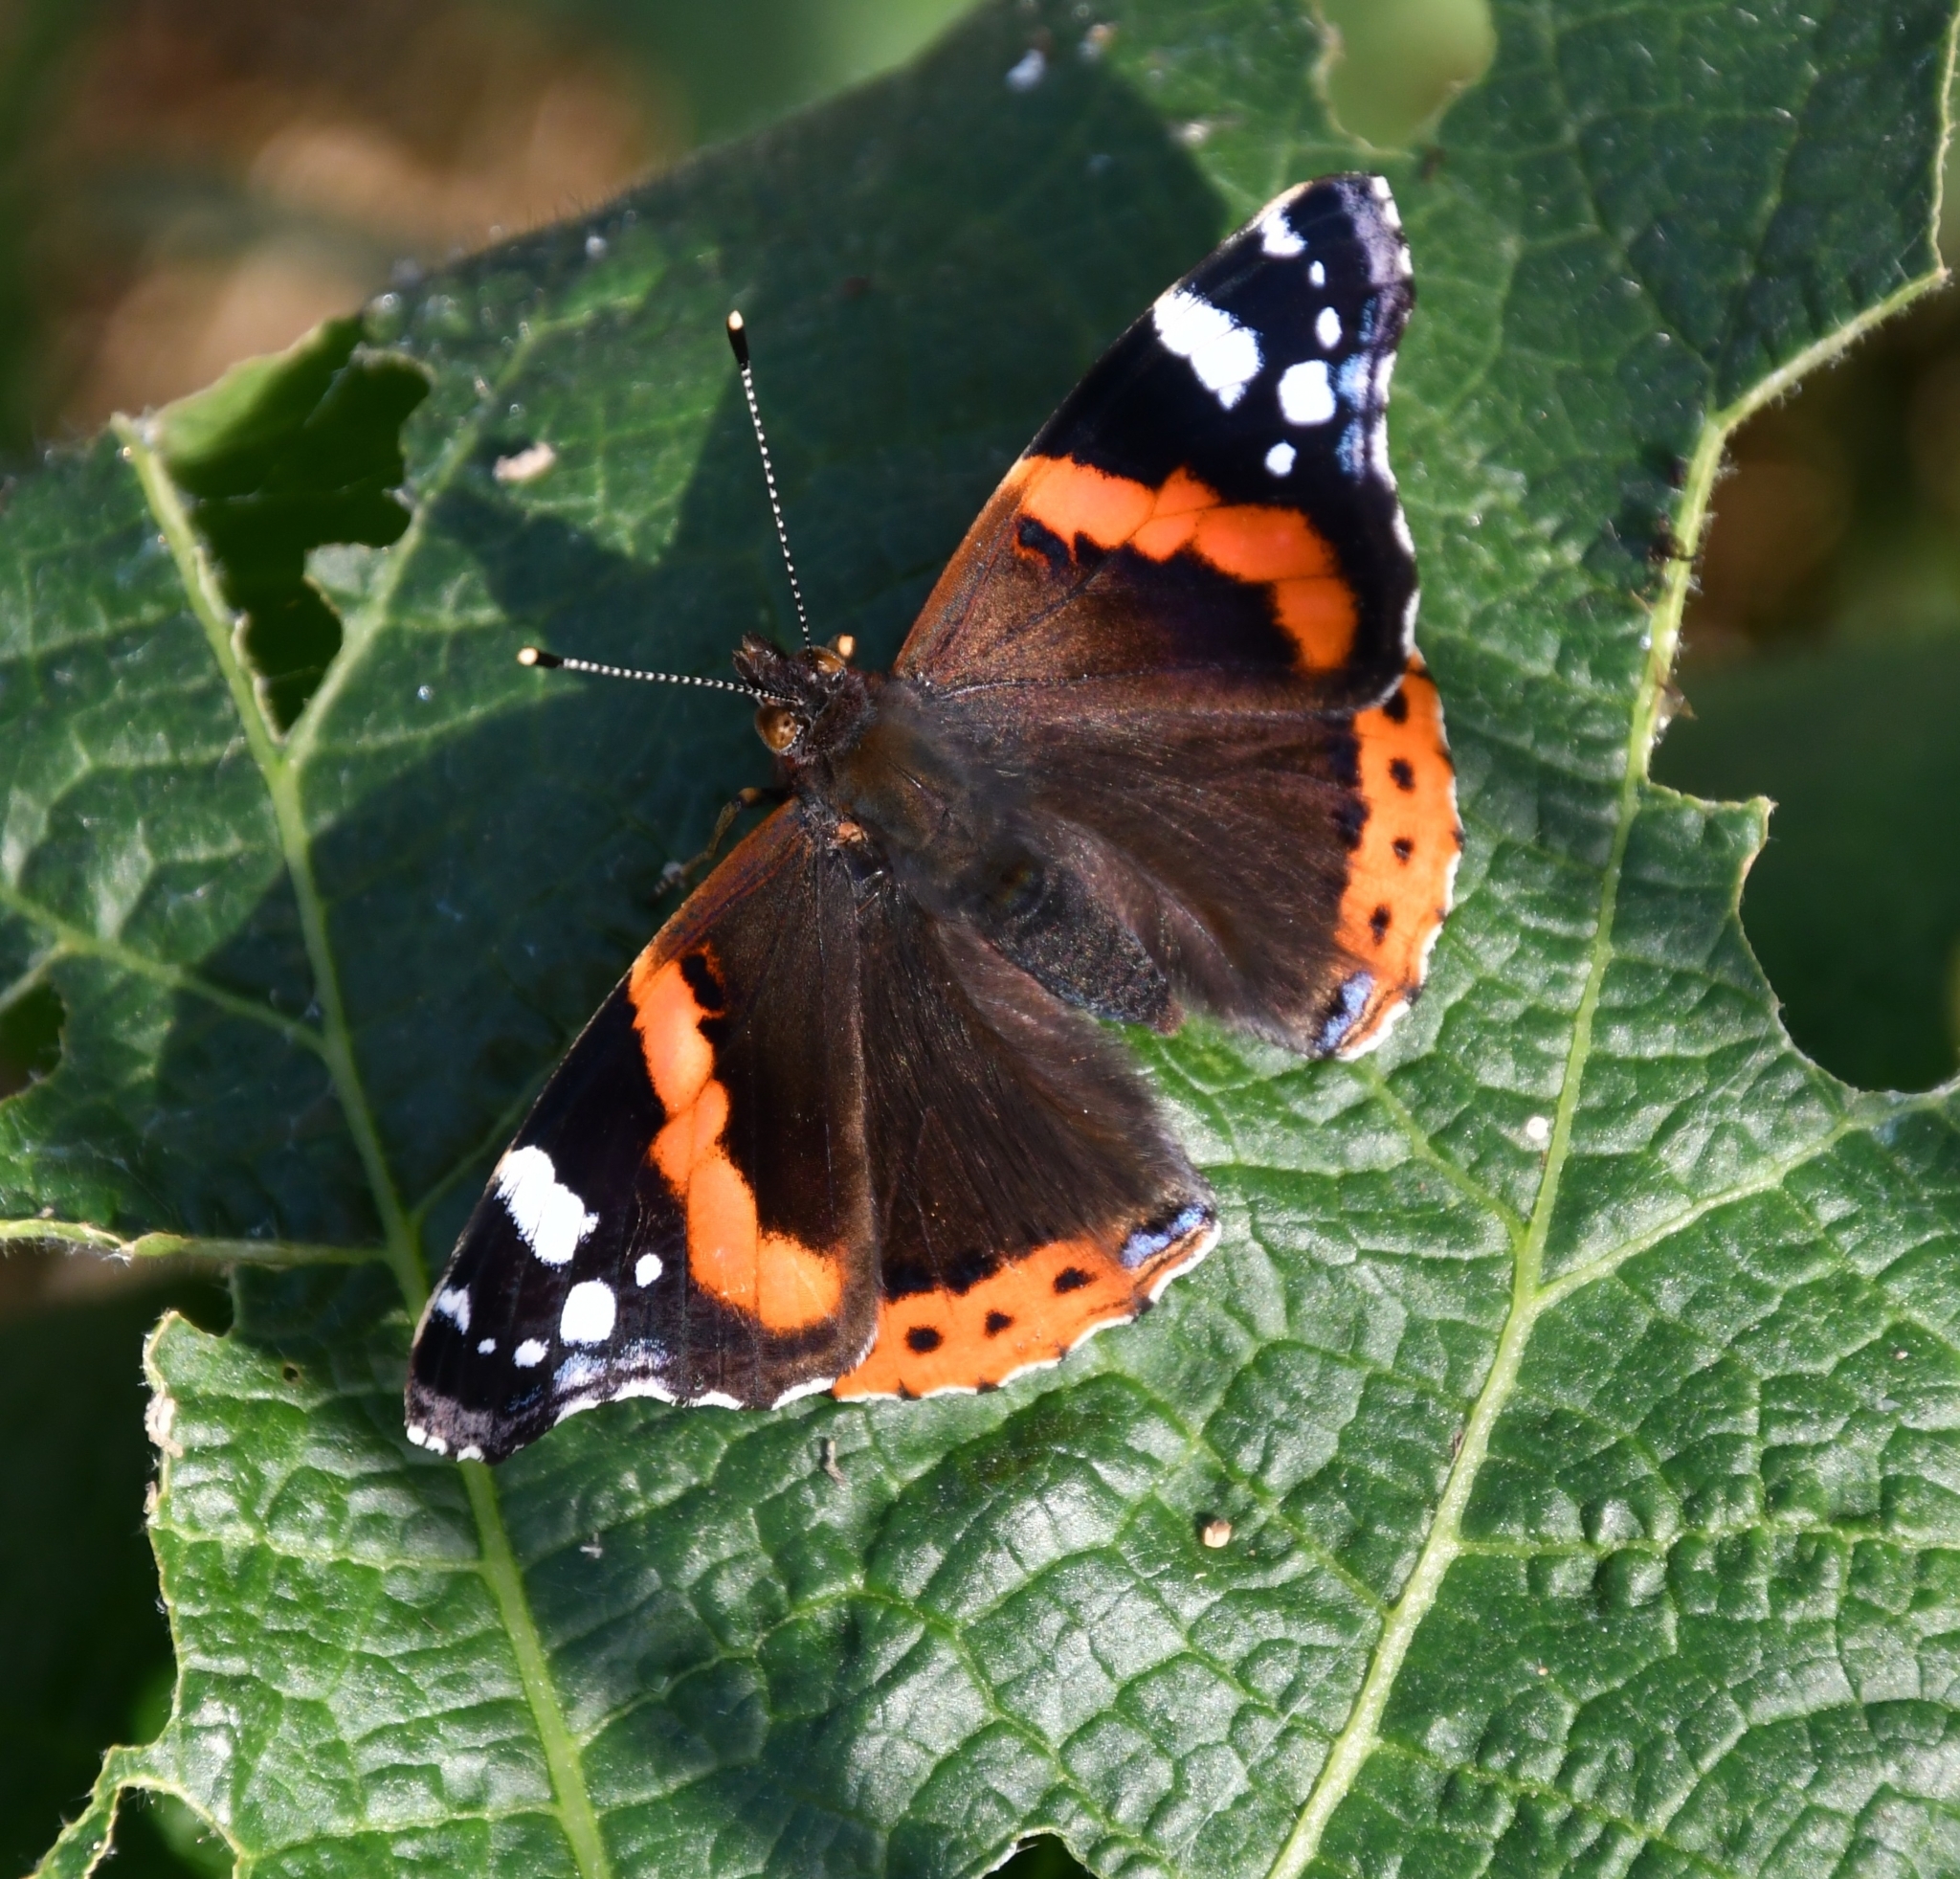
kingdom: Animalia
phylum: Arthropoda
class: Insecta
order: Lepidoptera
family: Nymphalidae
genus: Vanessa
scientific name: Vanessa atalanta
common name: Red admiral
